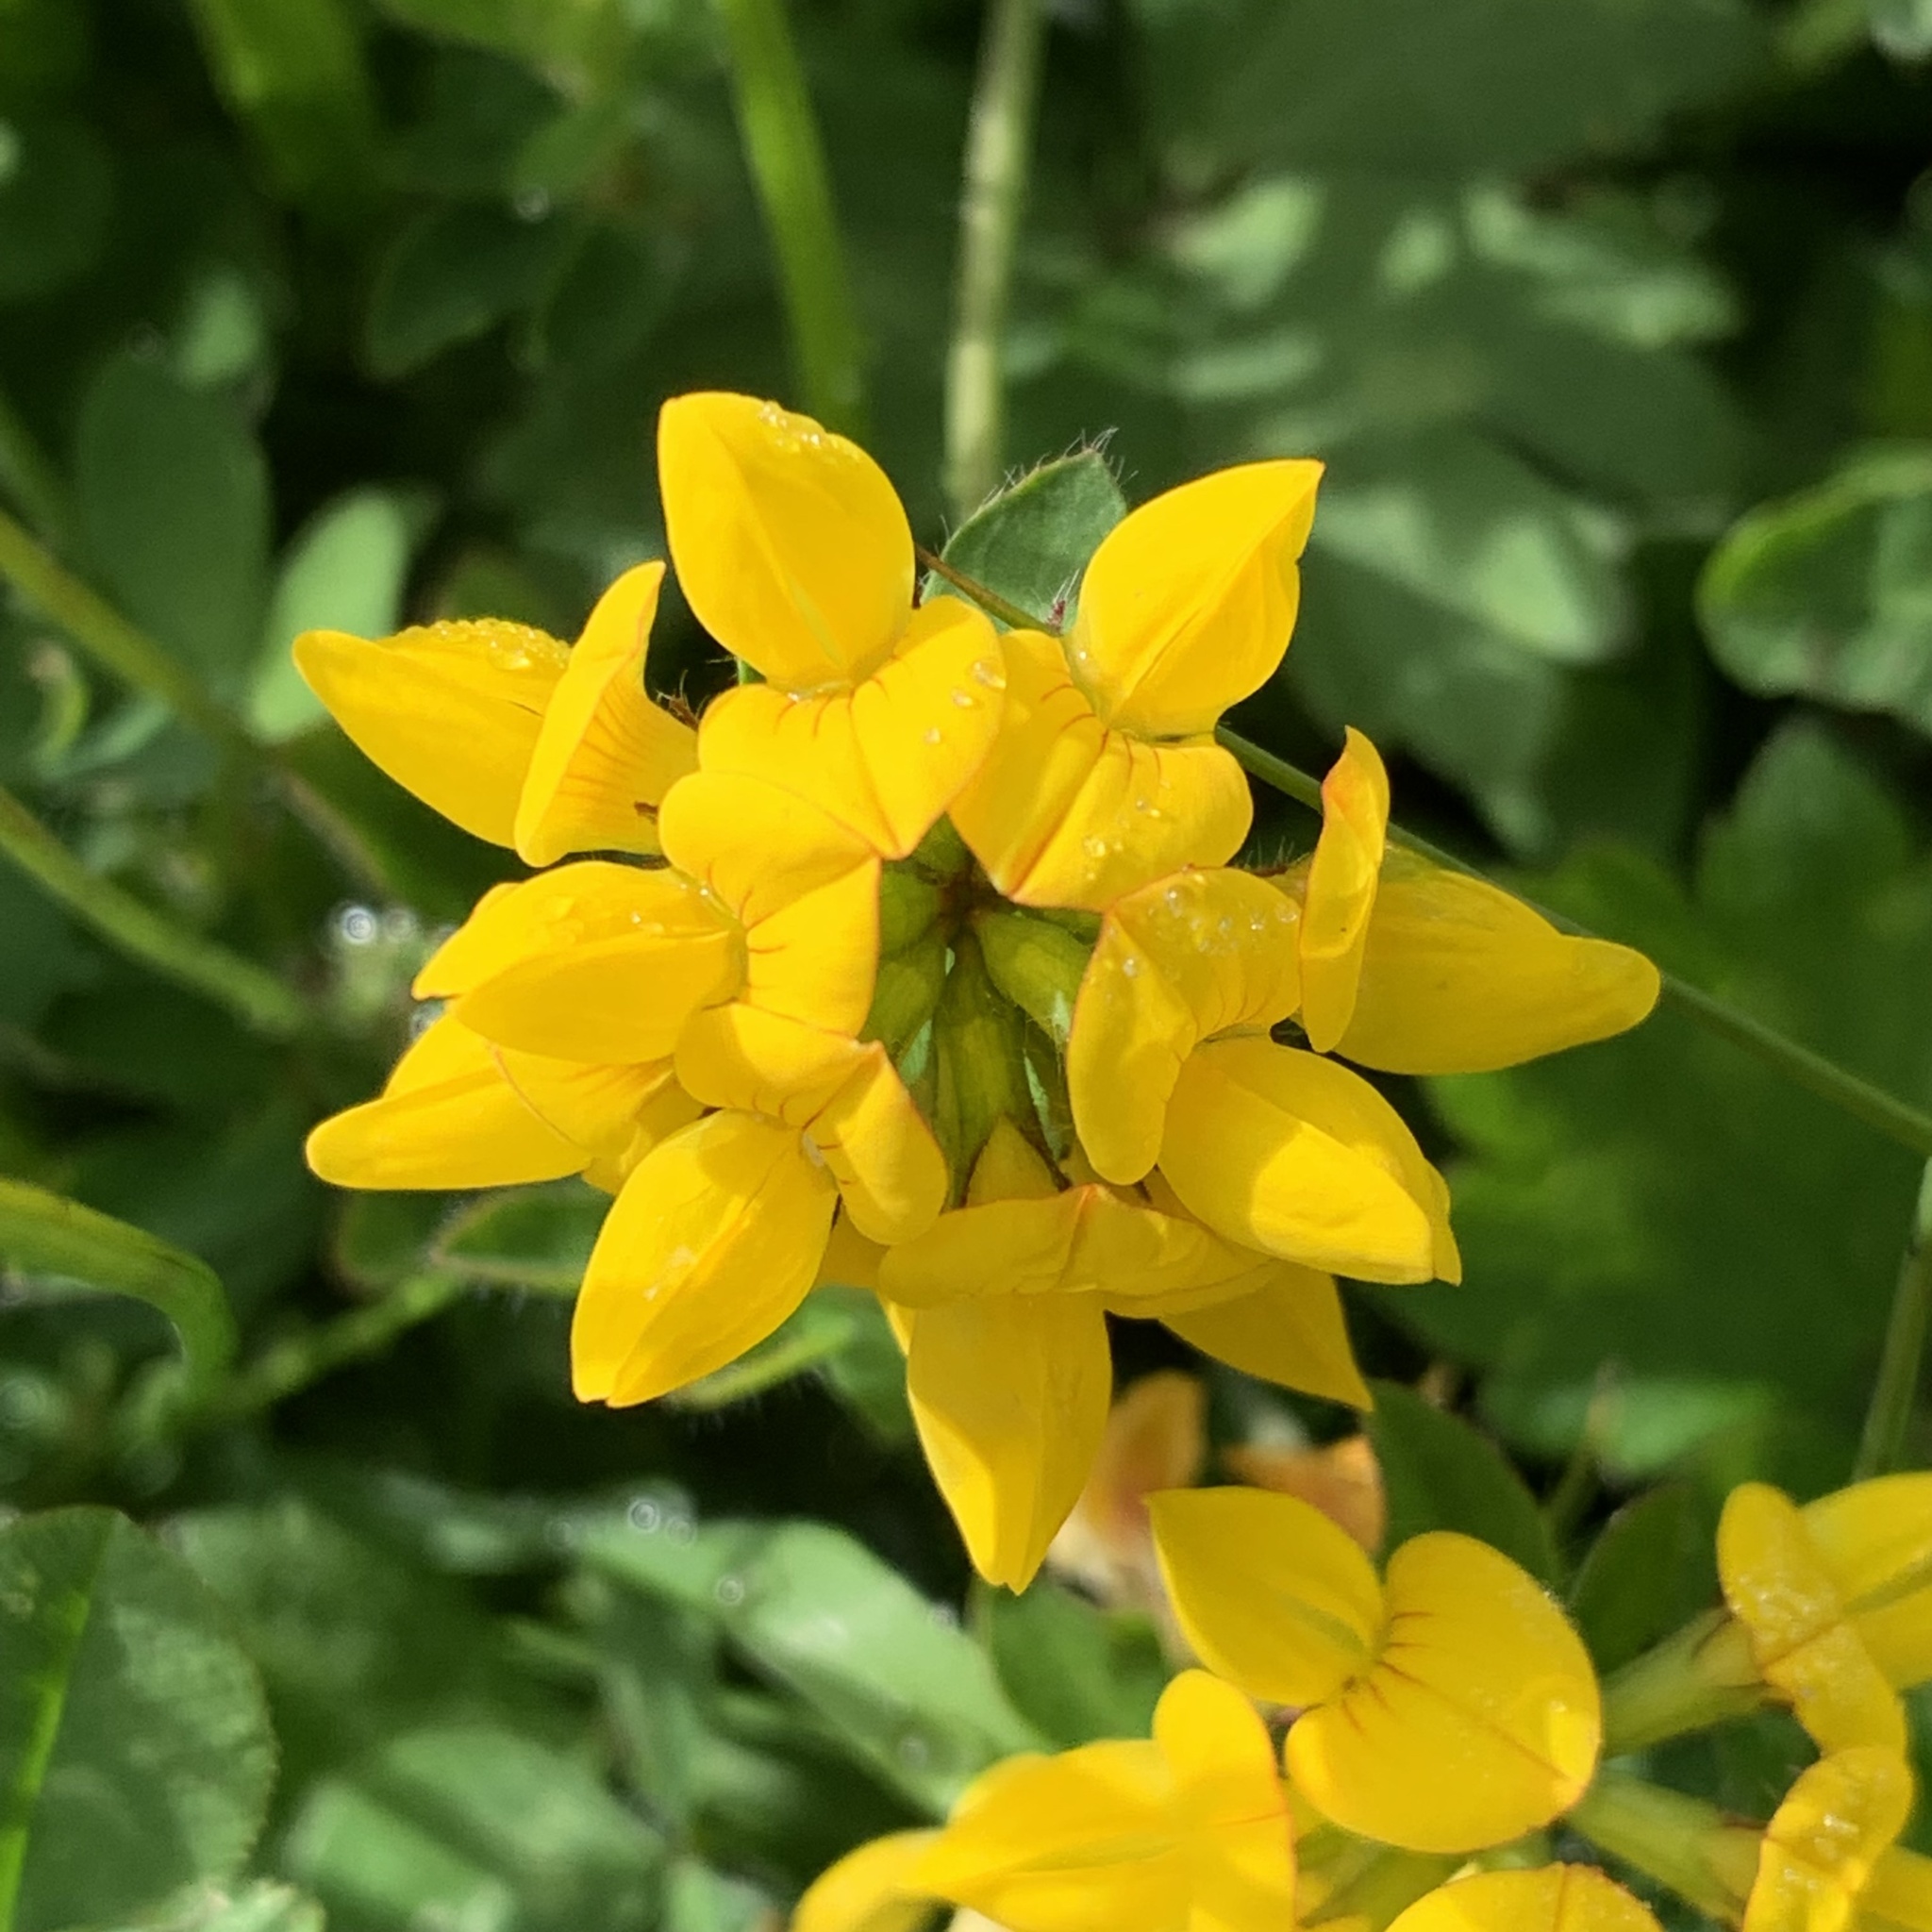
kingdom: Plantae
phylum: Tracheophyta
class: Magnoliopsida
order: Fabales
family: Fabaceae
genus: Lotus
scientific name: Lotus pedunculatus
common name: Greater birdsfoot-trefoil
